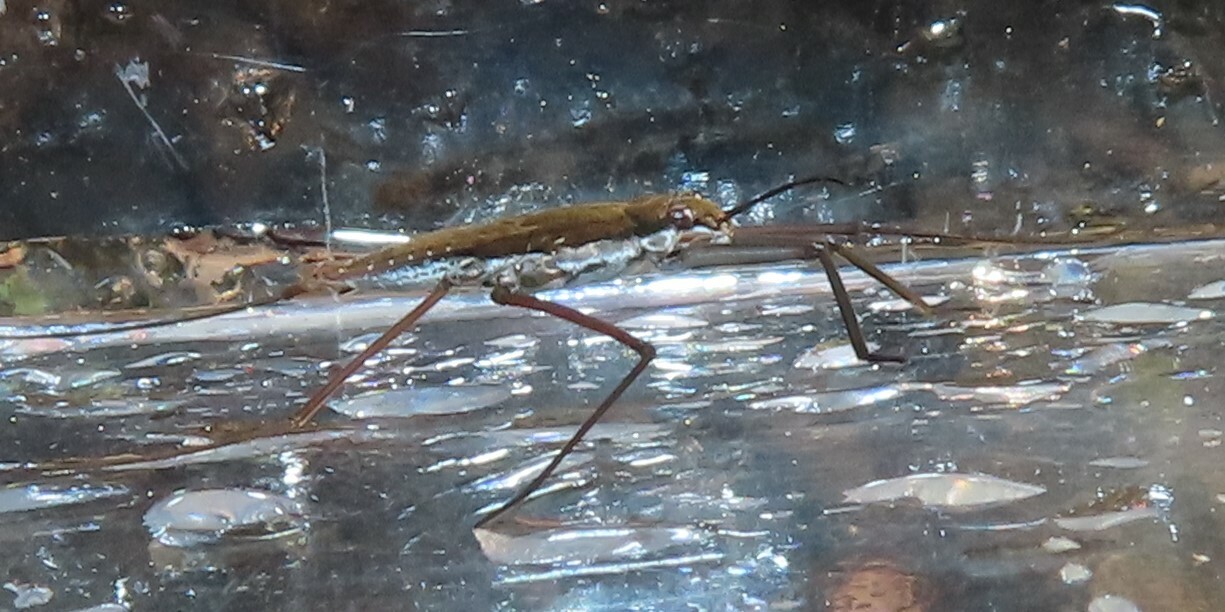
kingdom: Animalia
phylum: Arthropoda
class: Insecta
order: Hemiptera
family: Gerridae
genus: Aquarius
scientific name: Aquarius remigis
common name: Common water strider
